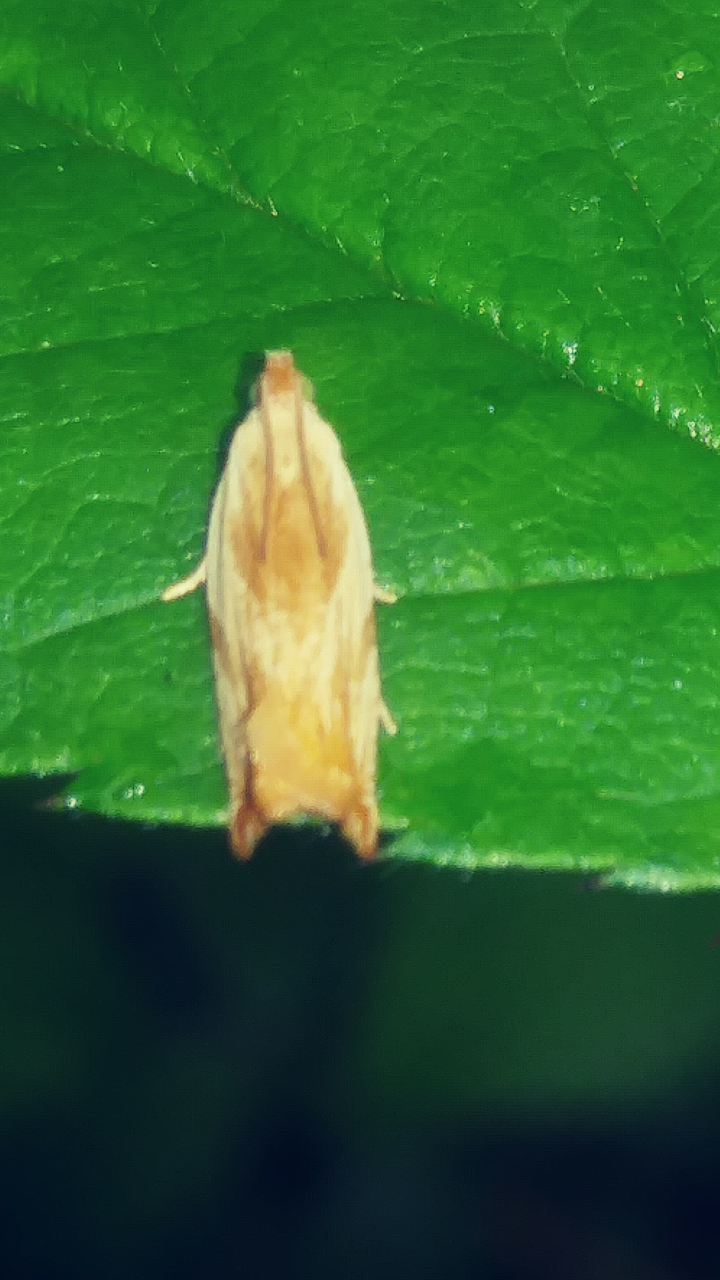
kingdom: Animalia
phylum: Arthropoda
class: Insecta
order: Lepidoptera
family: Tortricidae
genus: Ancylis
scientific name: Ancylis platanana
